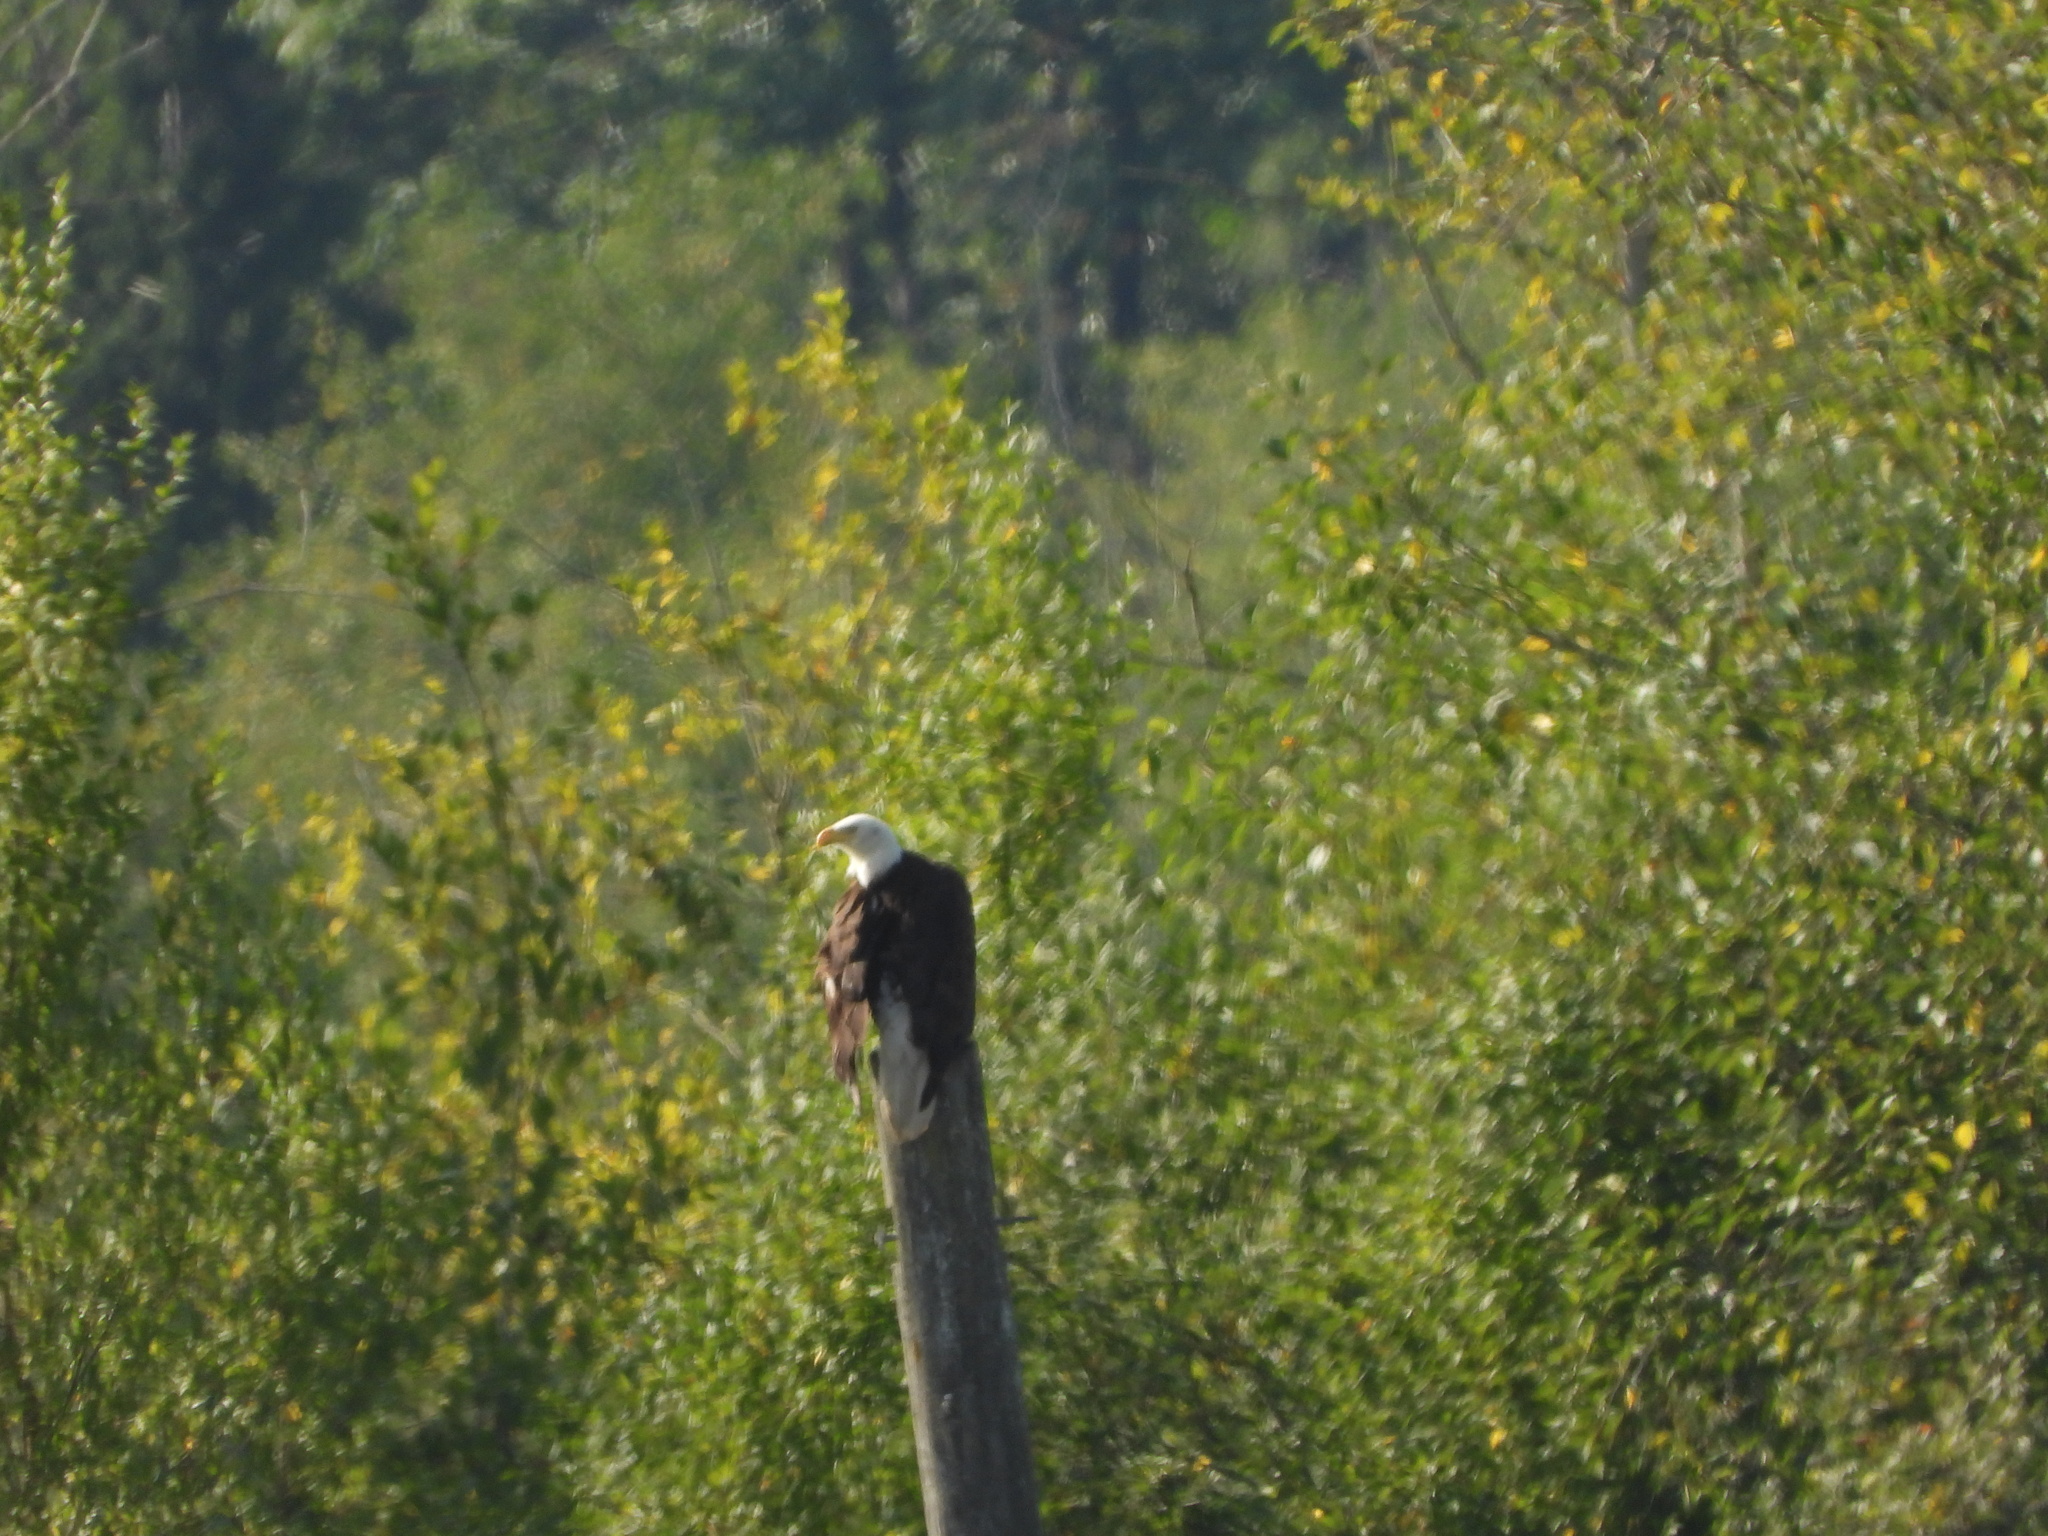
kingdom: Animalia
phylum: Chordata
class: Aves
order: Accipitriformes
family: Accipitridae
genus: Haliaeetus
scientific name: Haliaeetus leucocephalus
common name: Bald eagle
